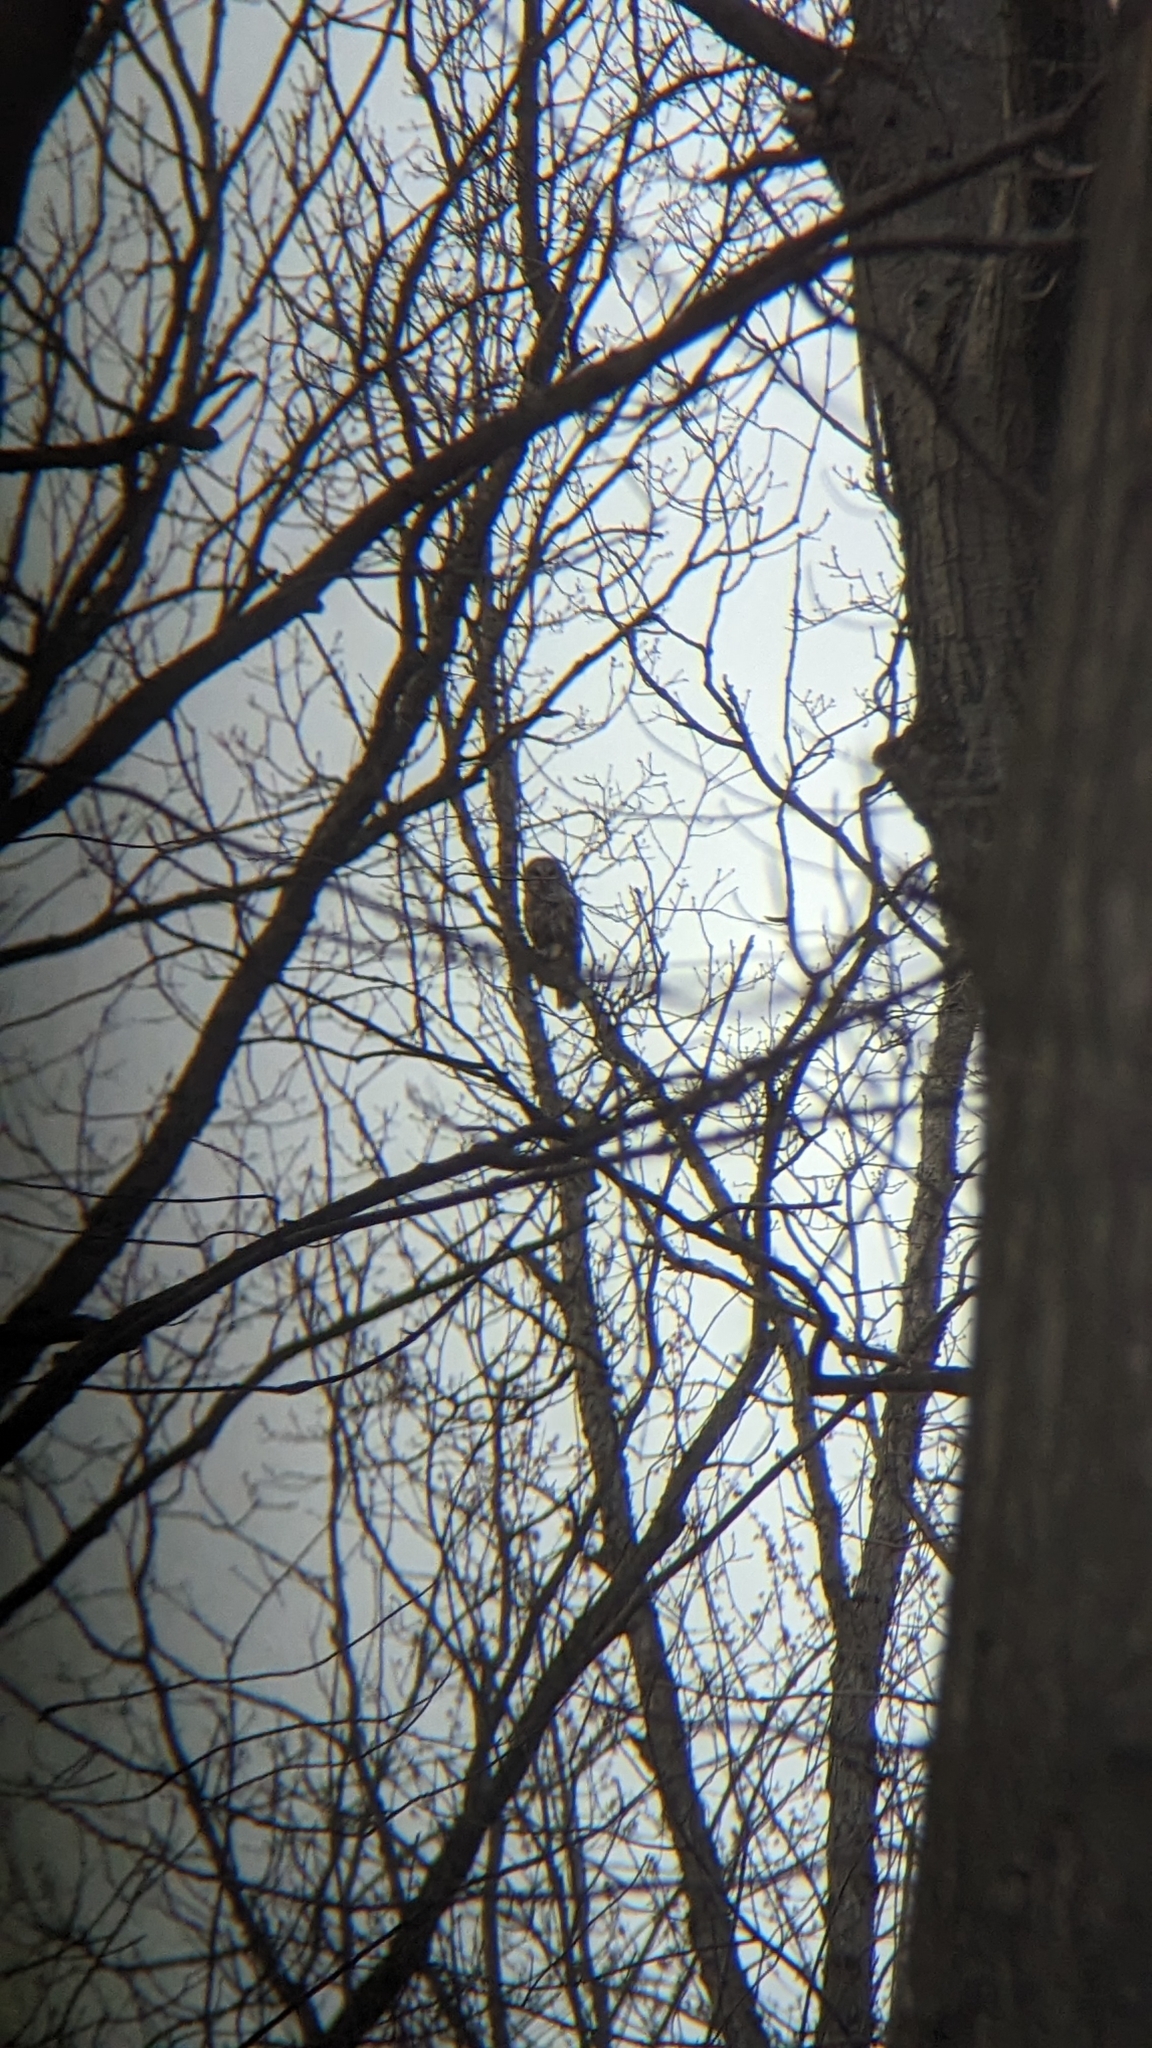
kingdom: Animalia
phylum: Chordata
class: Aves
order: Strigiformes
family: Strigidae
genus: Strix
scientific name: Strix varia
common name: Barred owl
